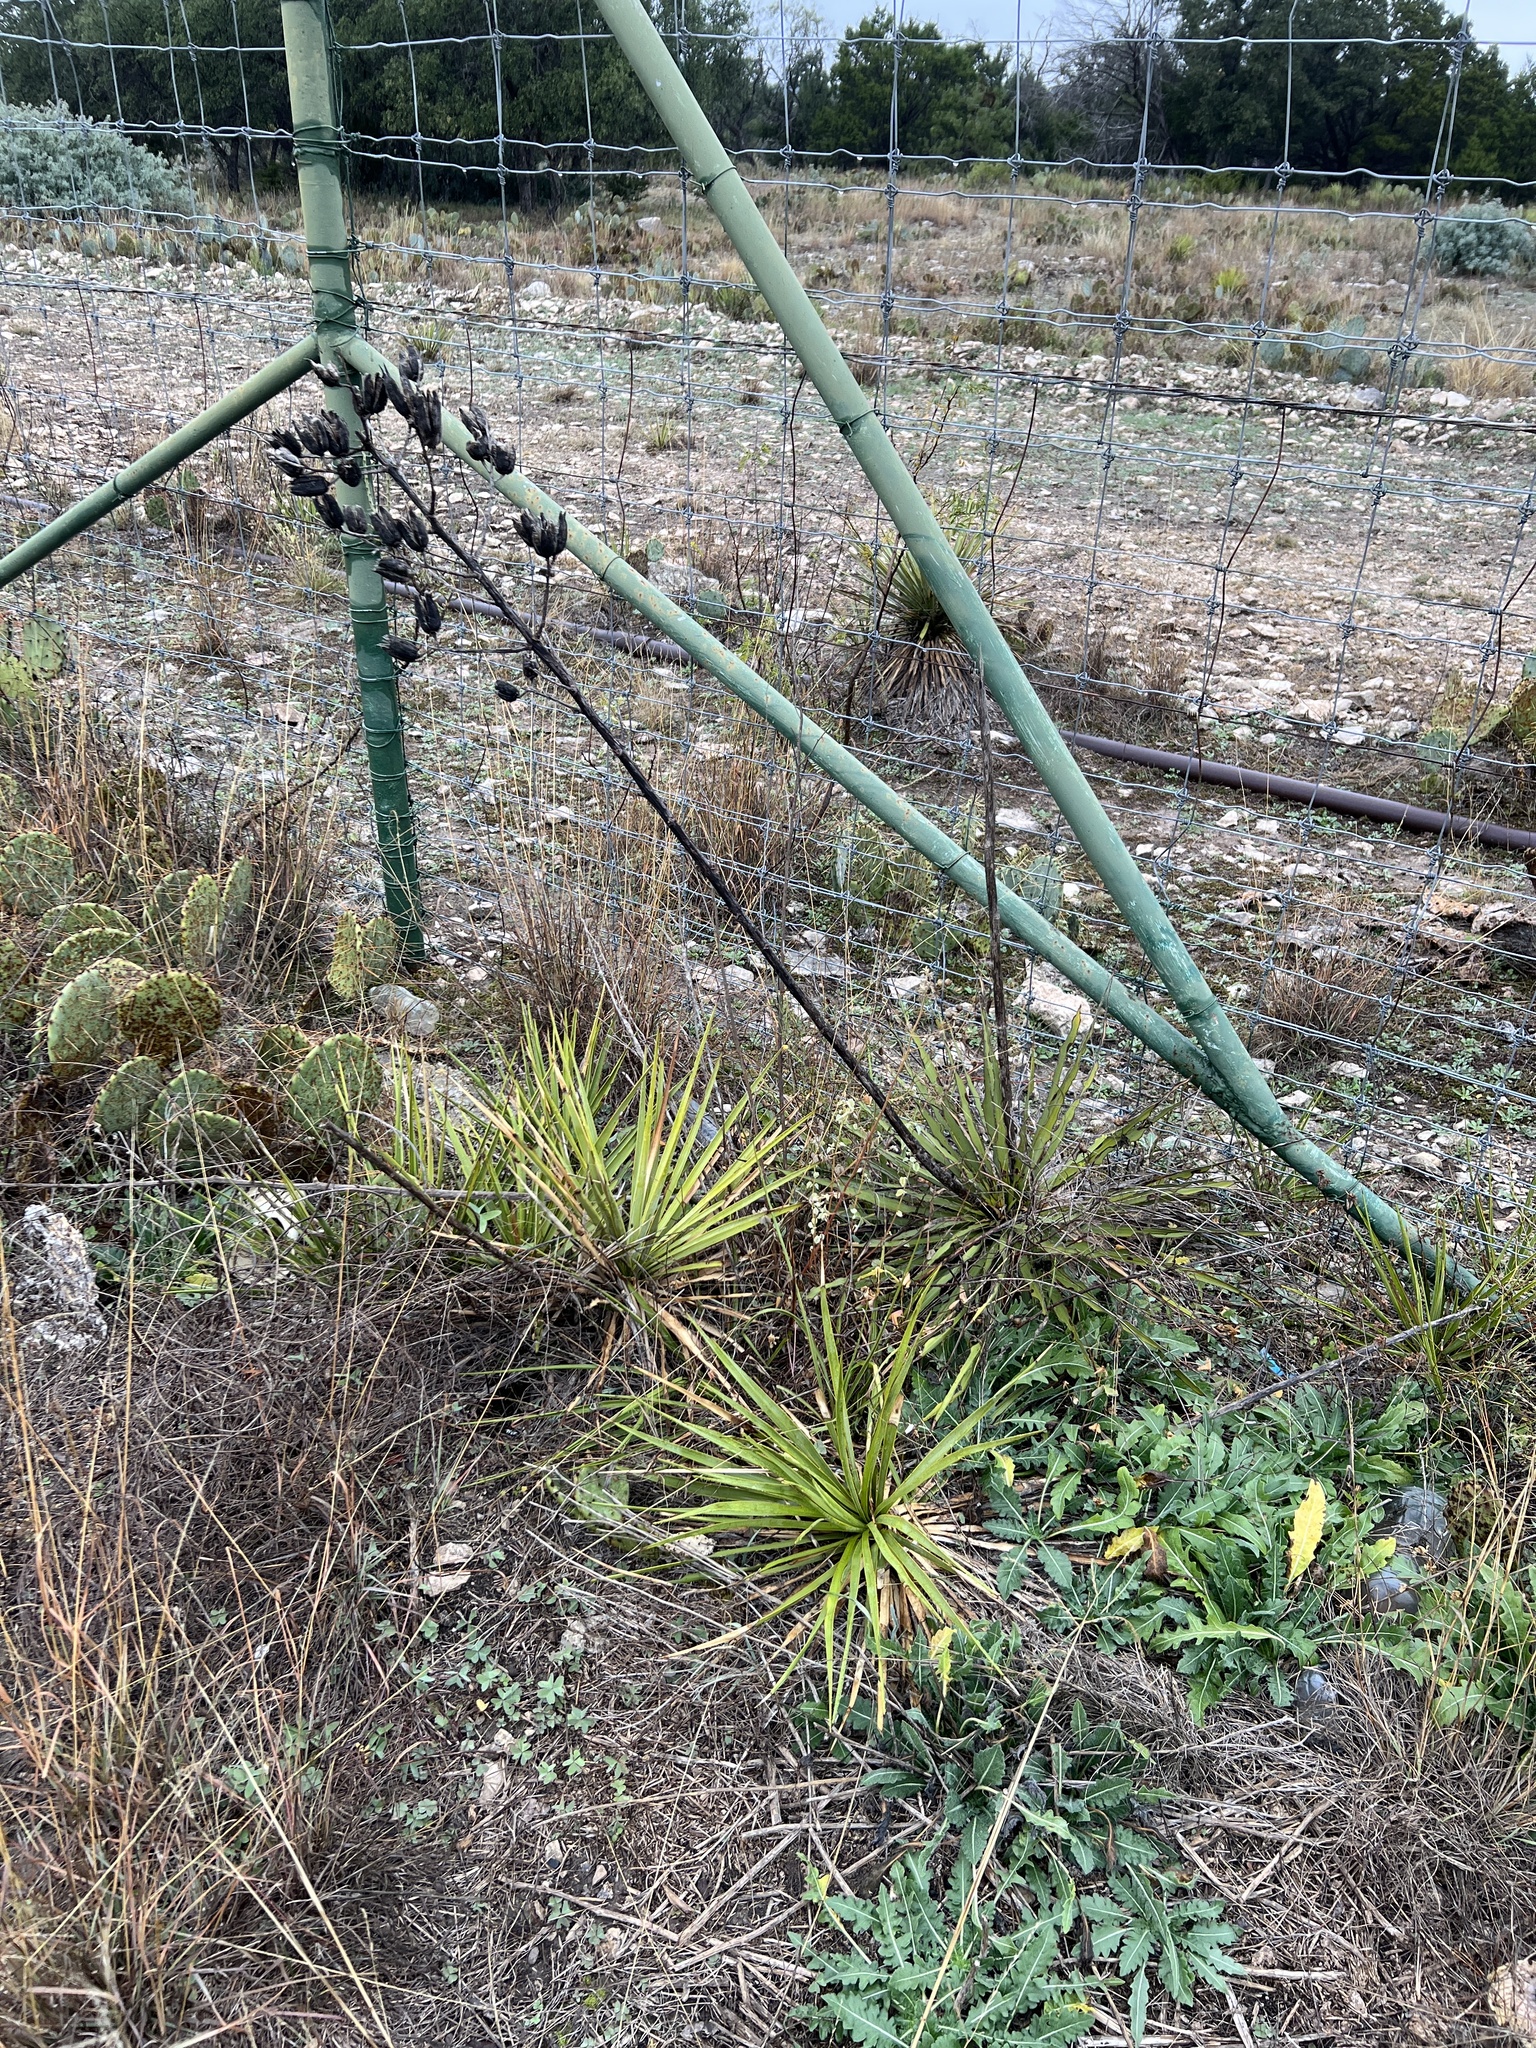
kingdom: Plantae
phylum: Tracheophyta
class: Liliopsida
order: Asparagales
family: Asparagaceae
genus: Yucca
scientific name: Yucca reverchonii
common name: San angelo yucca
